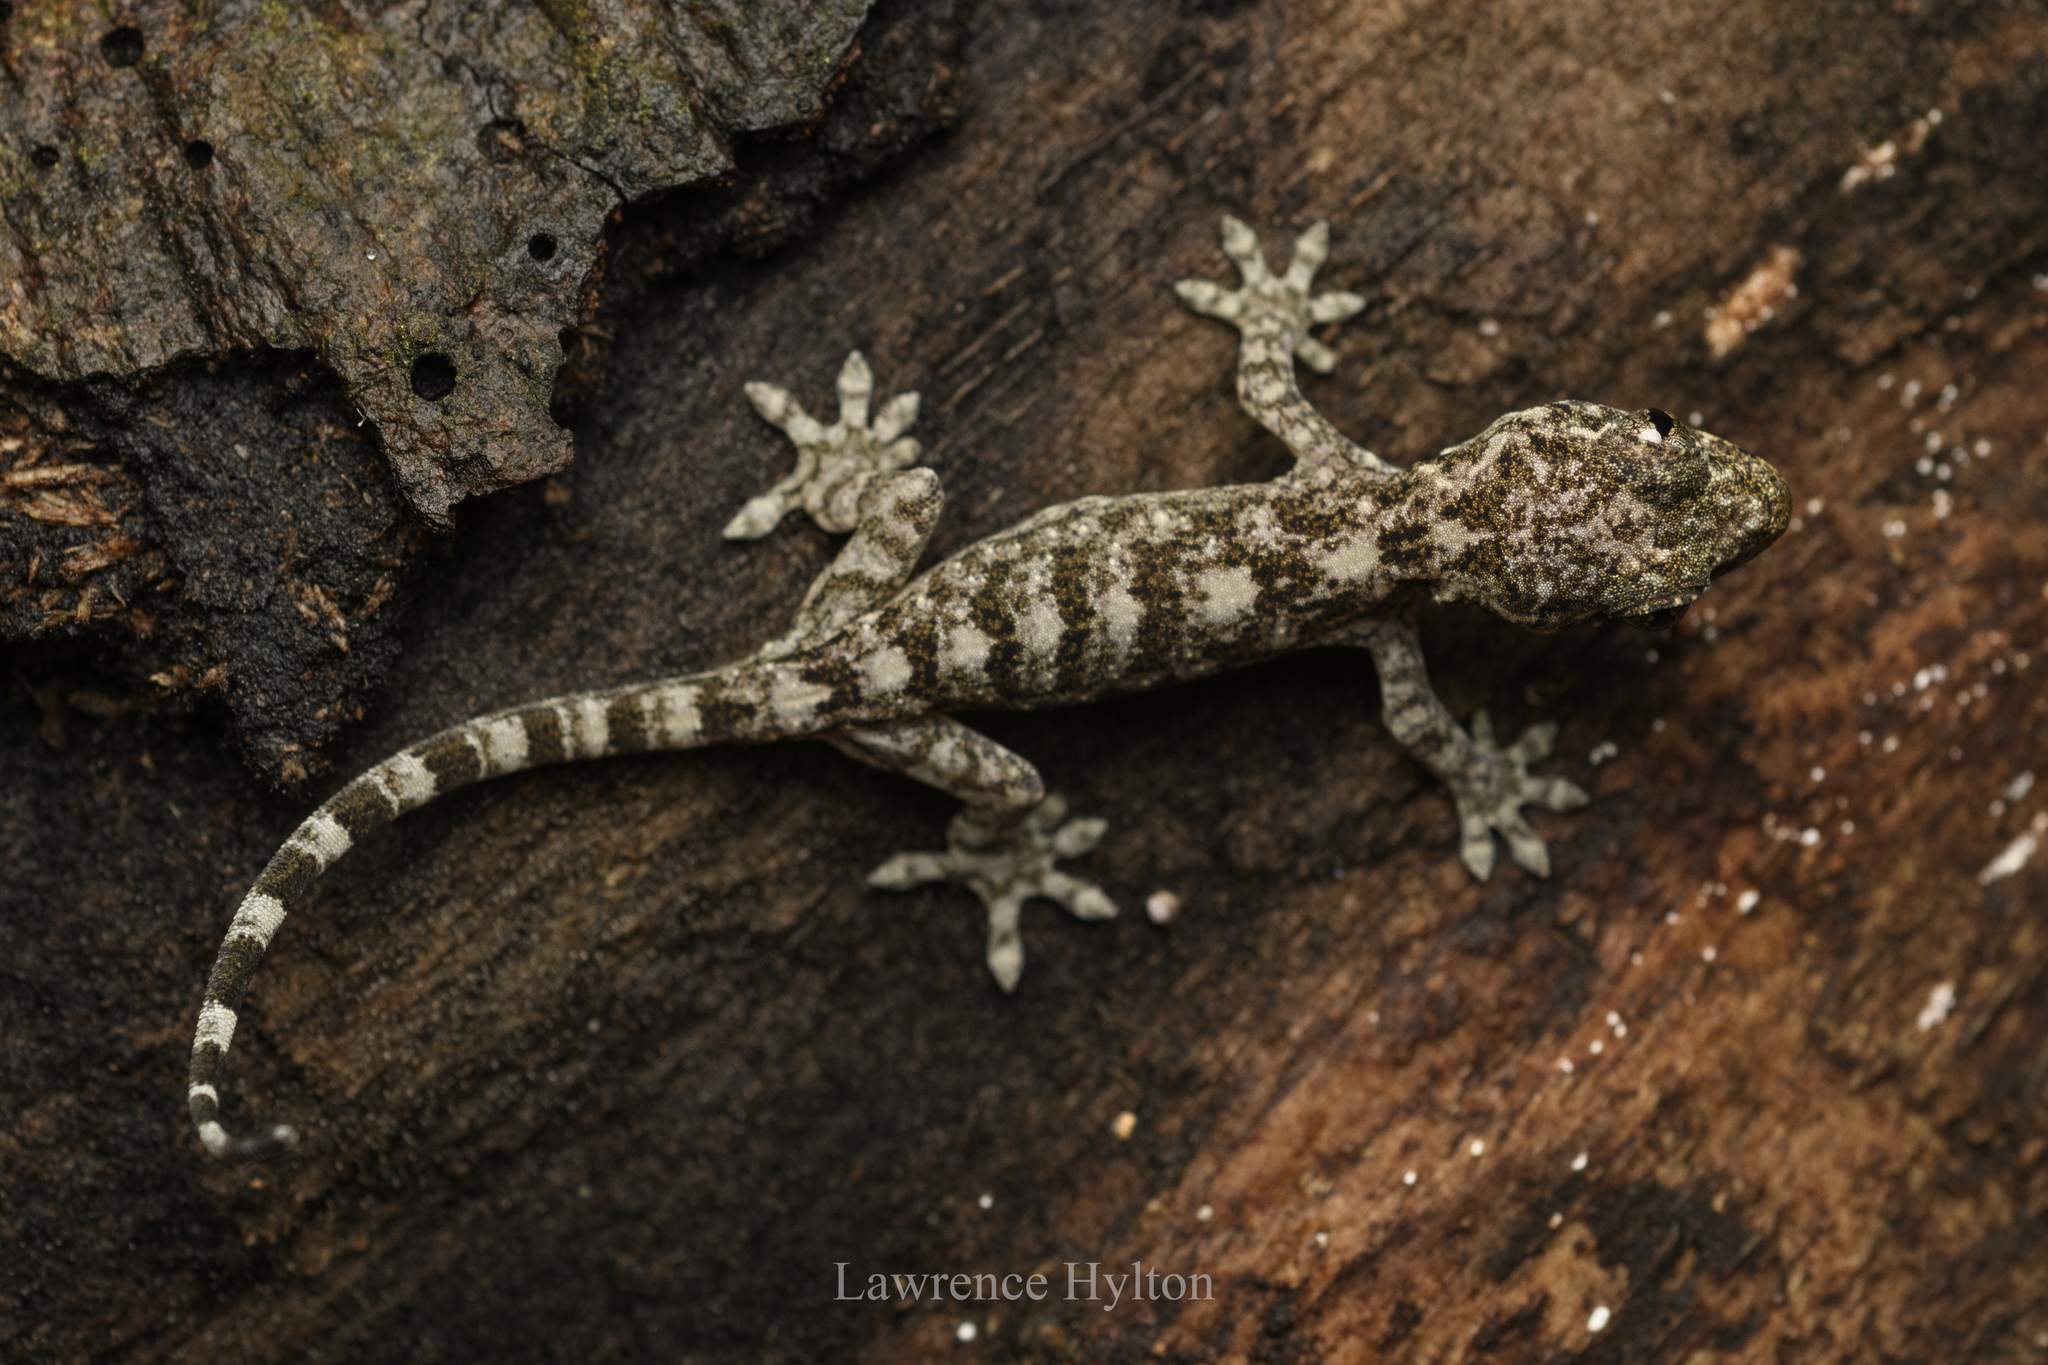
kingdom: Animalia
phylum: Chordata
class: Squamata
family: Gekkonidae
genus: Gekko
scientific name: Gekko chinensis
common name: Gray's chinese gecko
